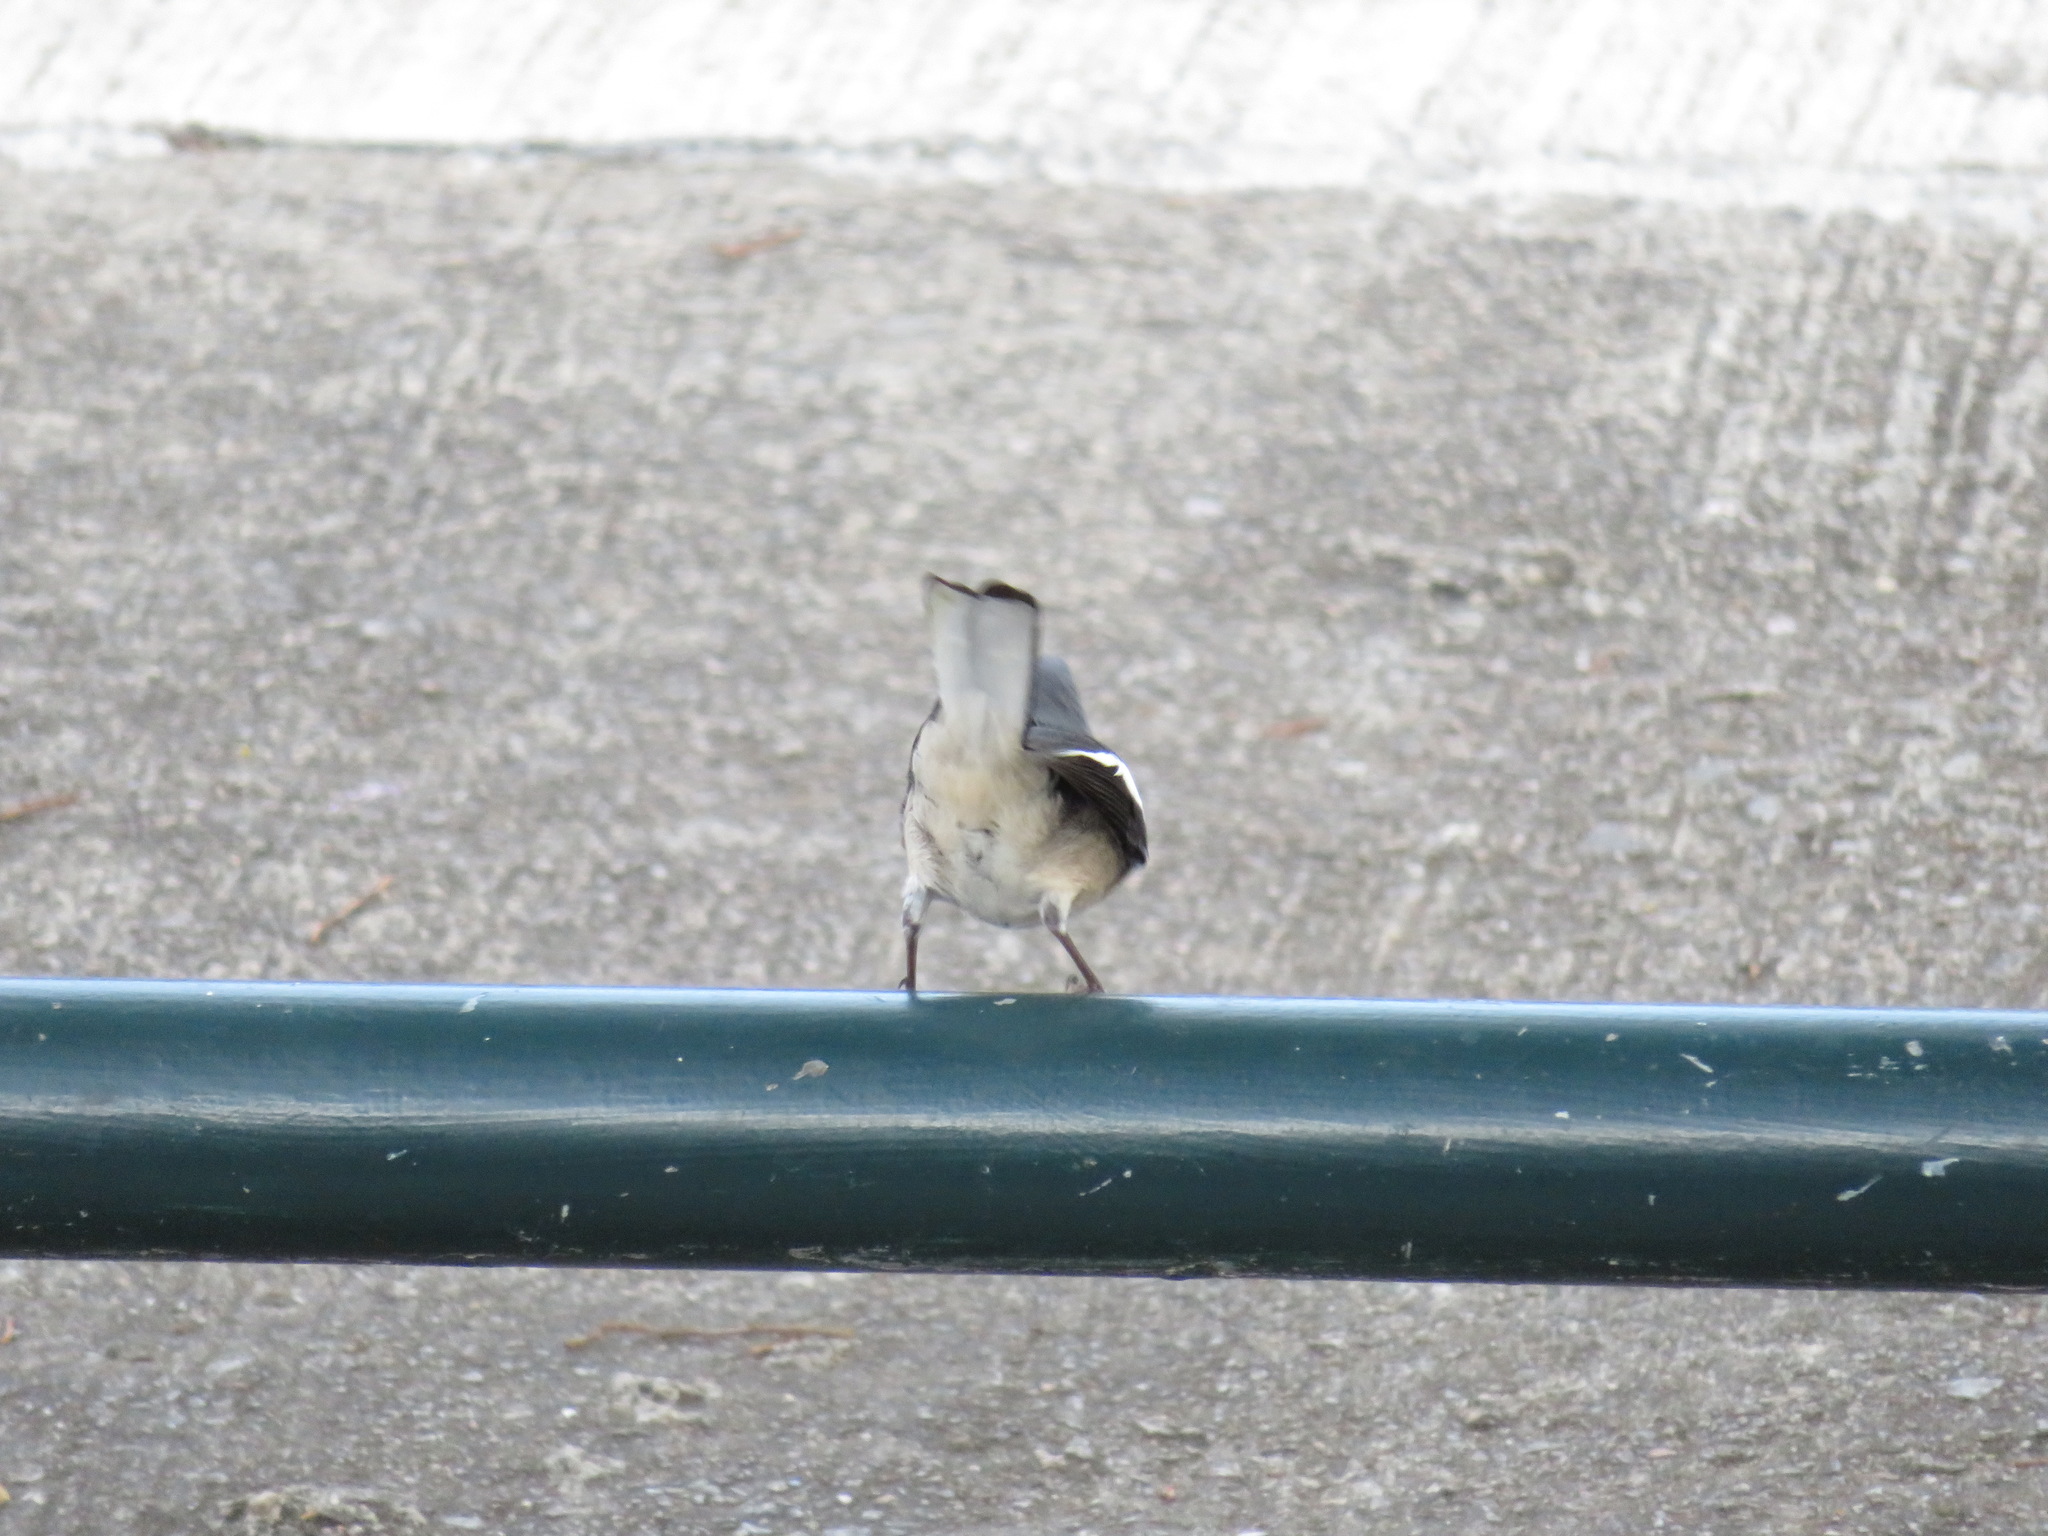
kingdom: Animalia
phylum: Chordata
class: Aves
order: Passeriformes
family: Muscicapidae
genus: Copsychus
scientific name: Copsychus saularis
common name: Oriental magpie-robin
